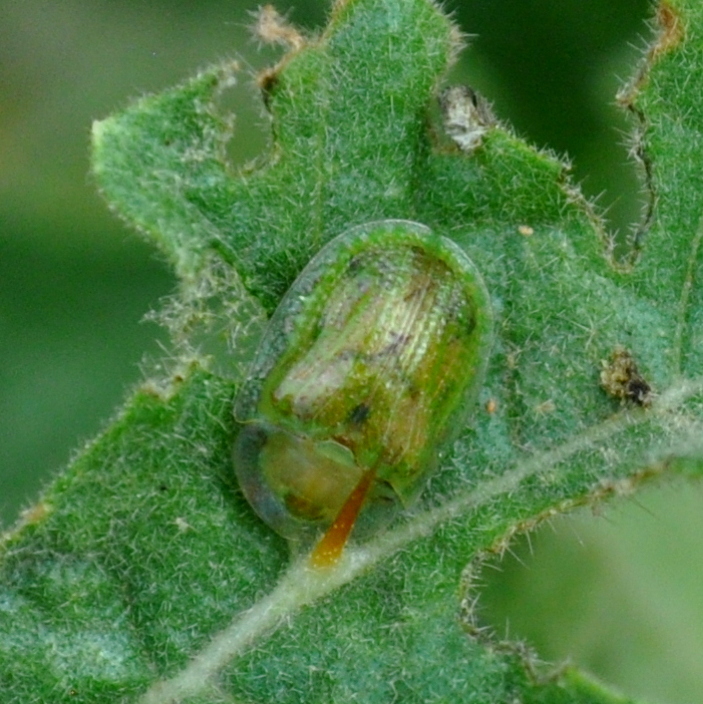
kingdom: Animalia
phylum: Arthropoda
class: Insecta
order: Coleoptera
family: Chrysomelidae
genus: Gratiana
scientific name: Gratiana boliviana
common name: Leaf beetle
